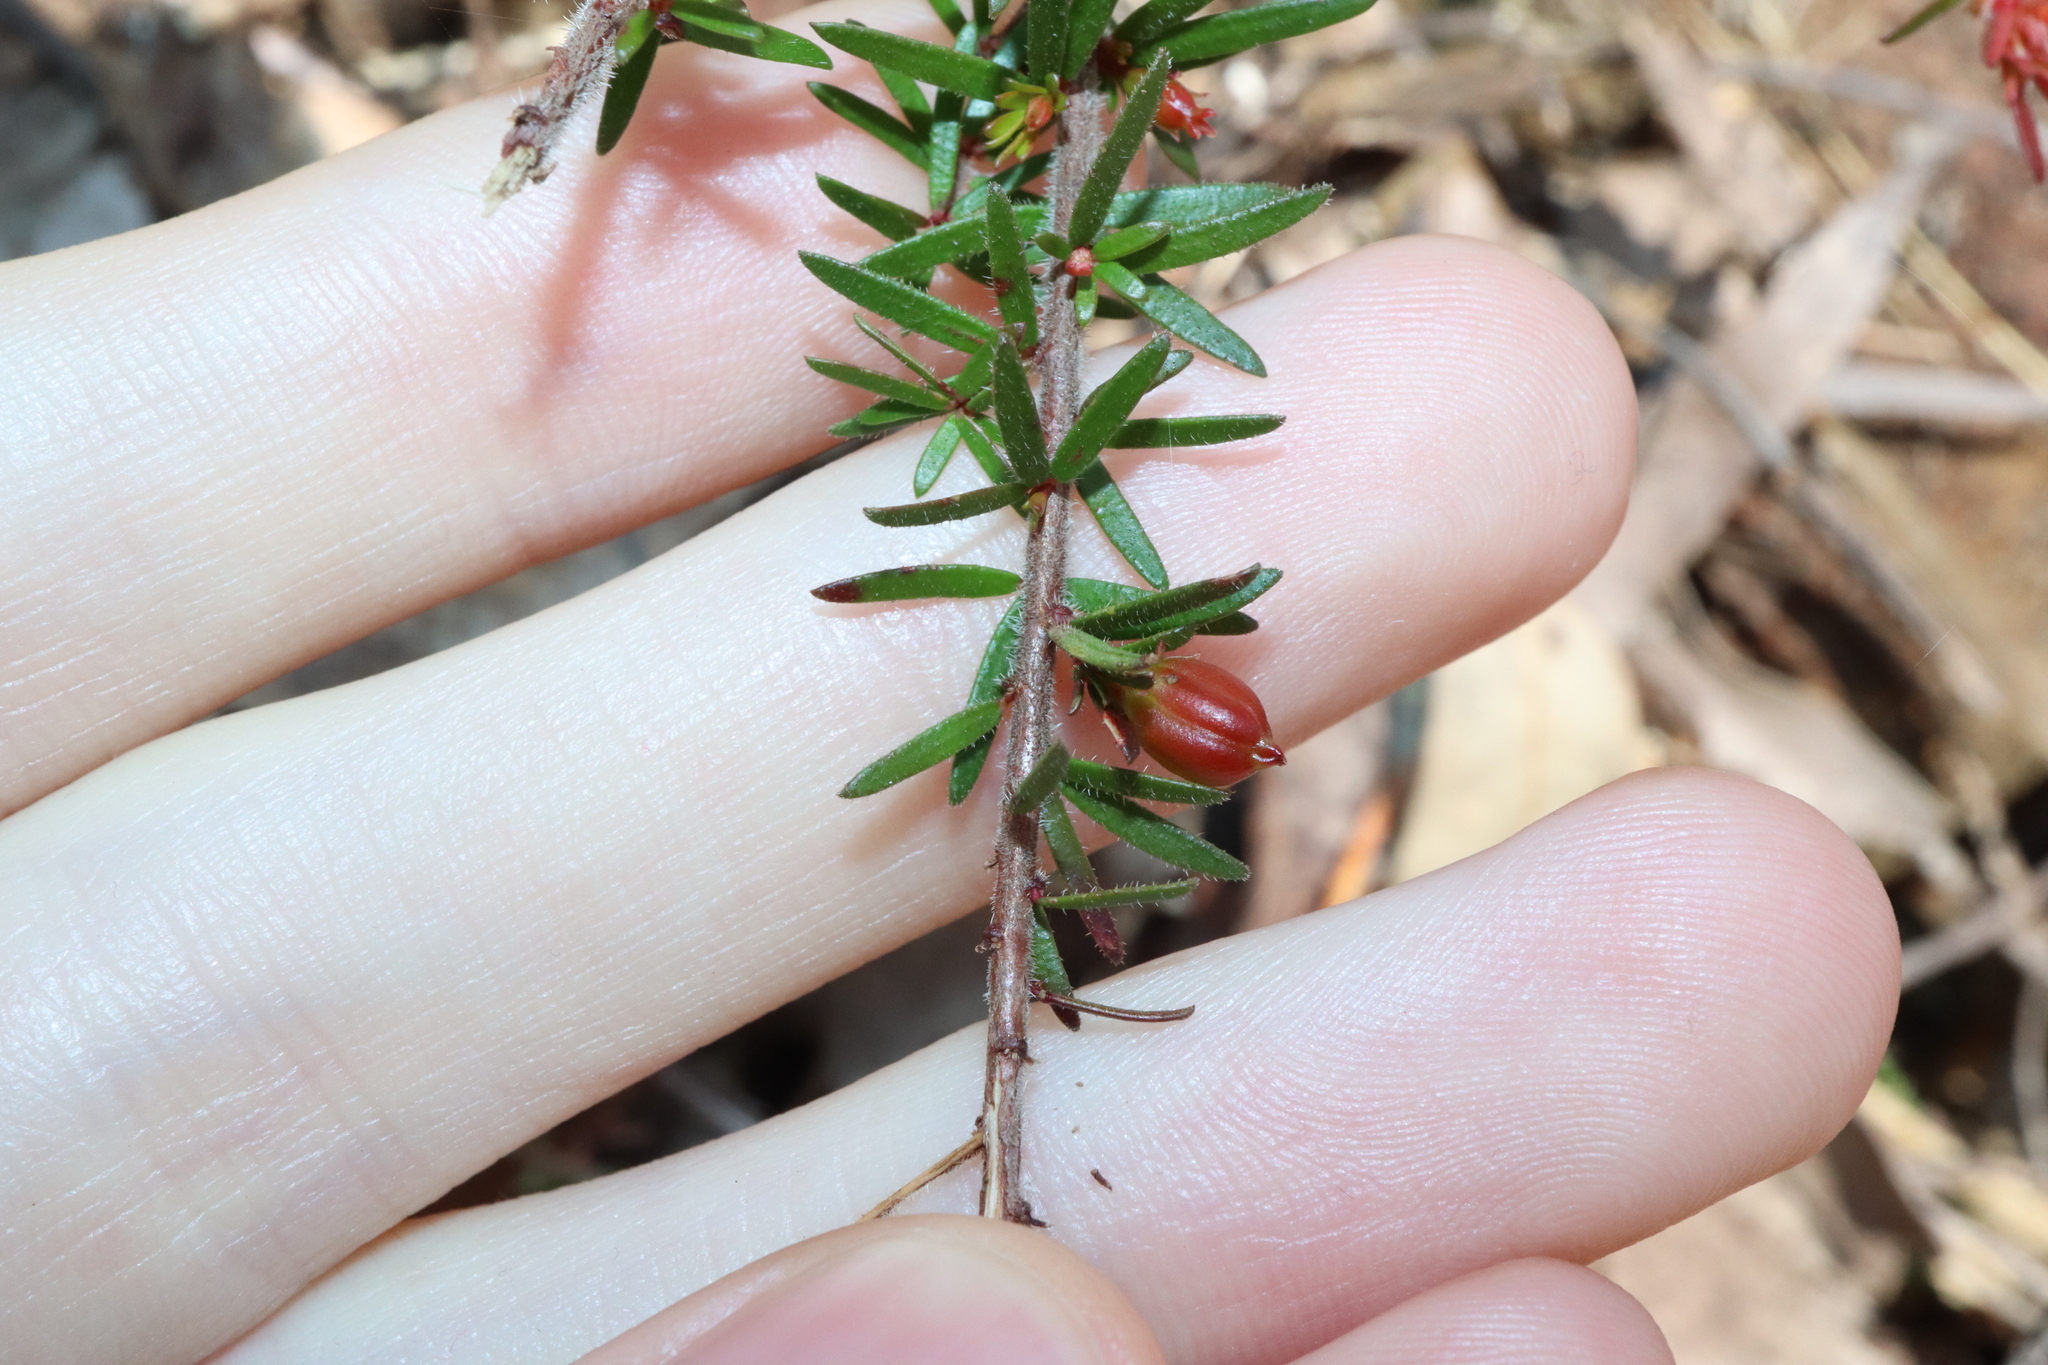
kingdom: Plantae
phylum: Tracheophyta
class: Magnoliopsida
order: Malpighiales
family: Picrodendraceae
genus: Micrantheum
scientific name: Micrantheum ericoides
